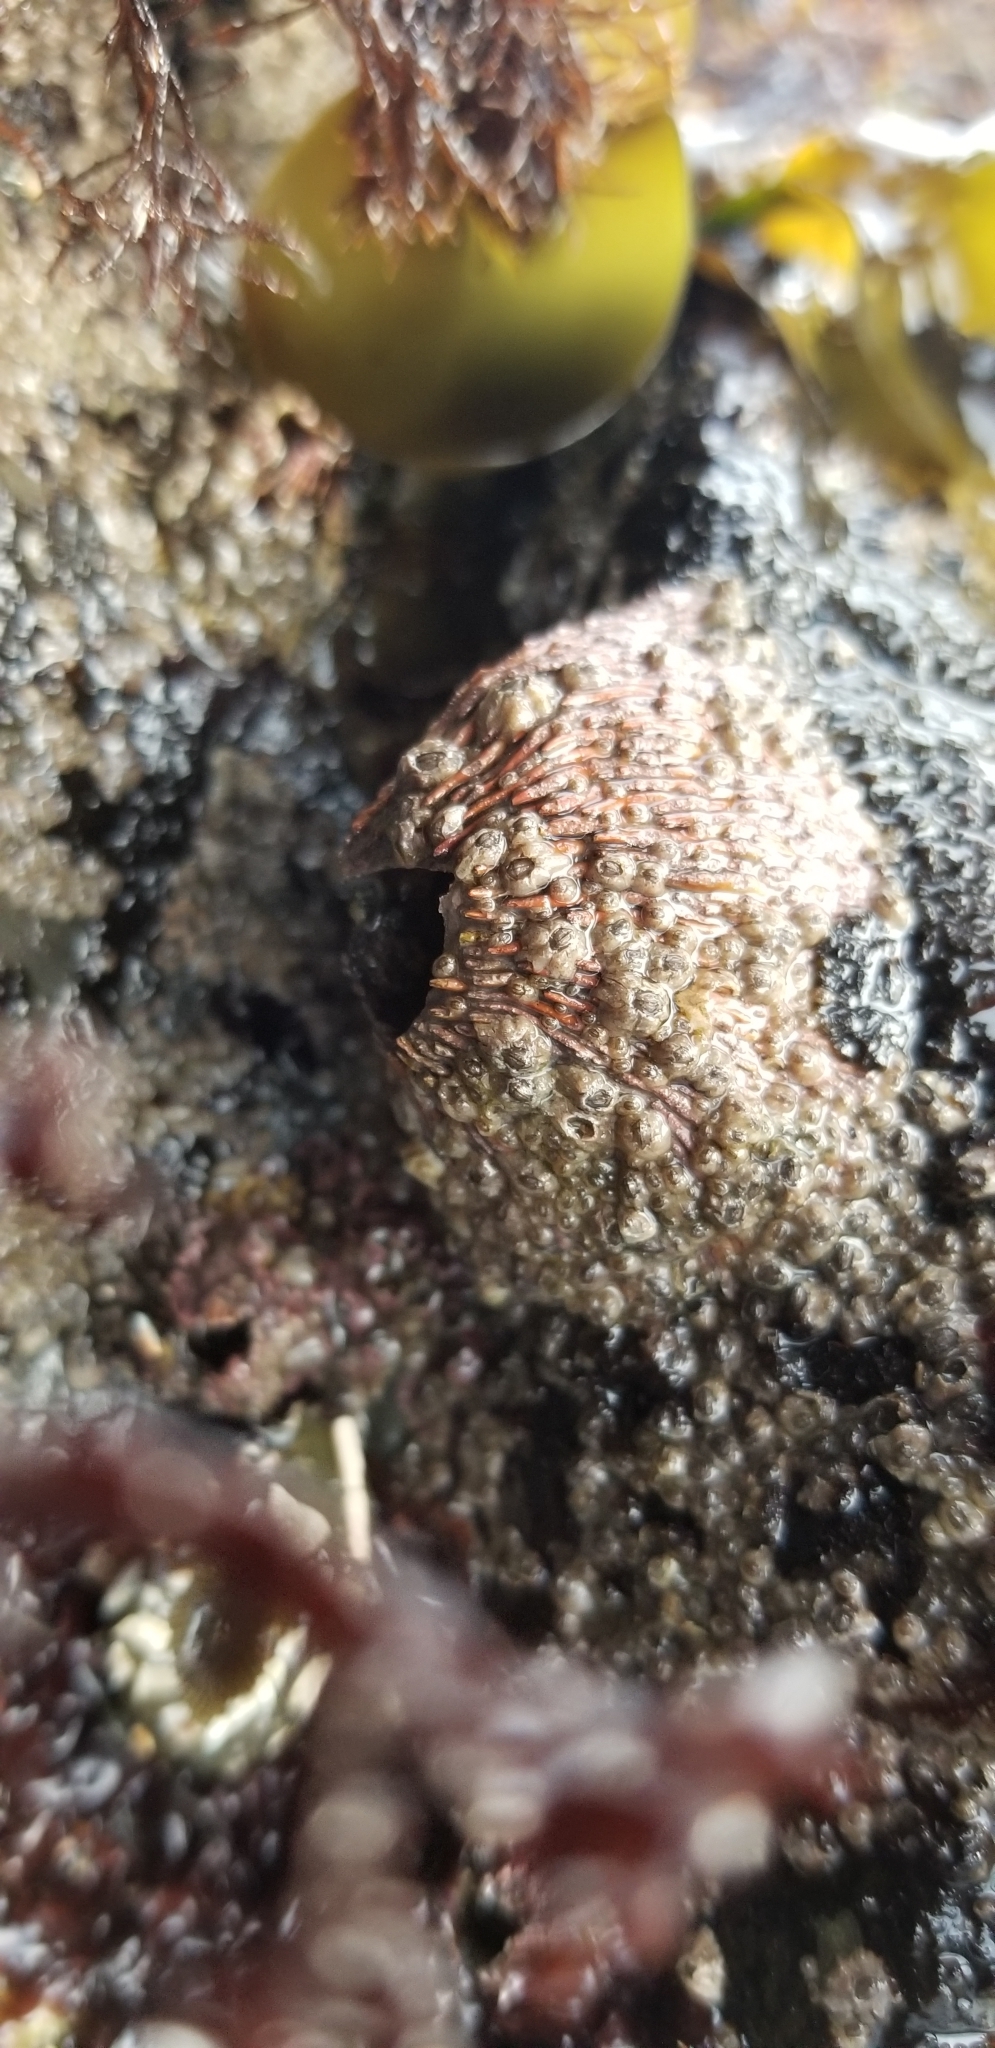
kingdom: Animalia
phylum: Arthropoda
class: Maxillopoda
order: Sessilia
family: Tetraclitidae
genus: Tetraclita
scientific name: Tetraclita rubescens
